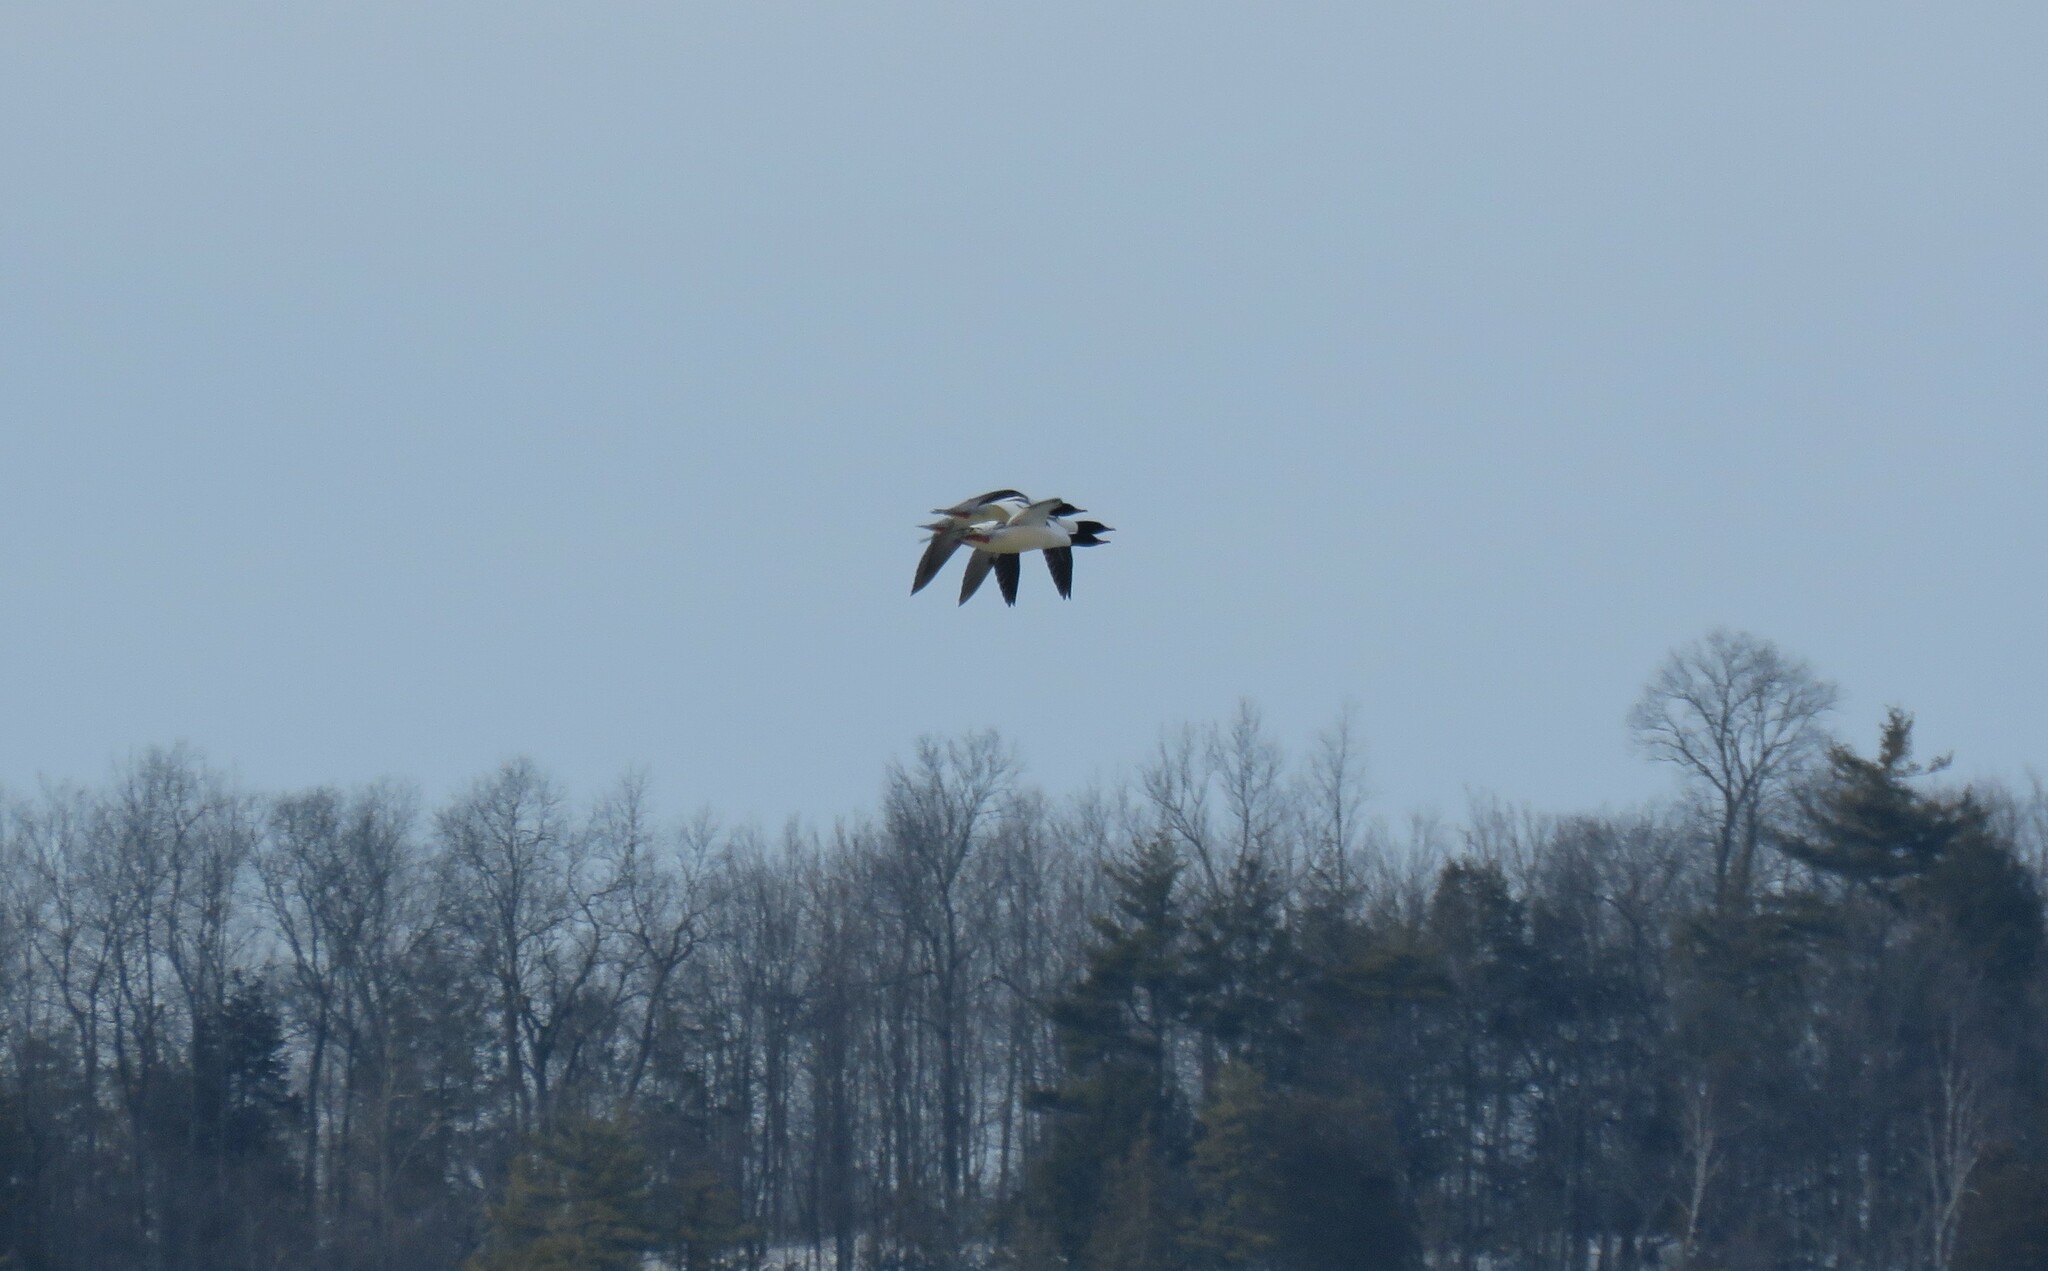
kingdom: Animalia
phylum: Chordata
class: Aves
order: Anseriformes
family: Anatidae
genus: Mergus
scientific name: Mergus merganser
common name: Common merganser
